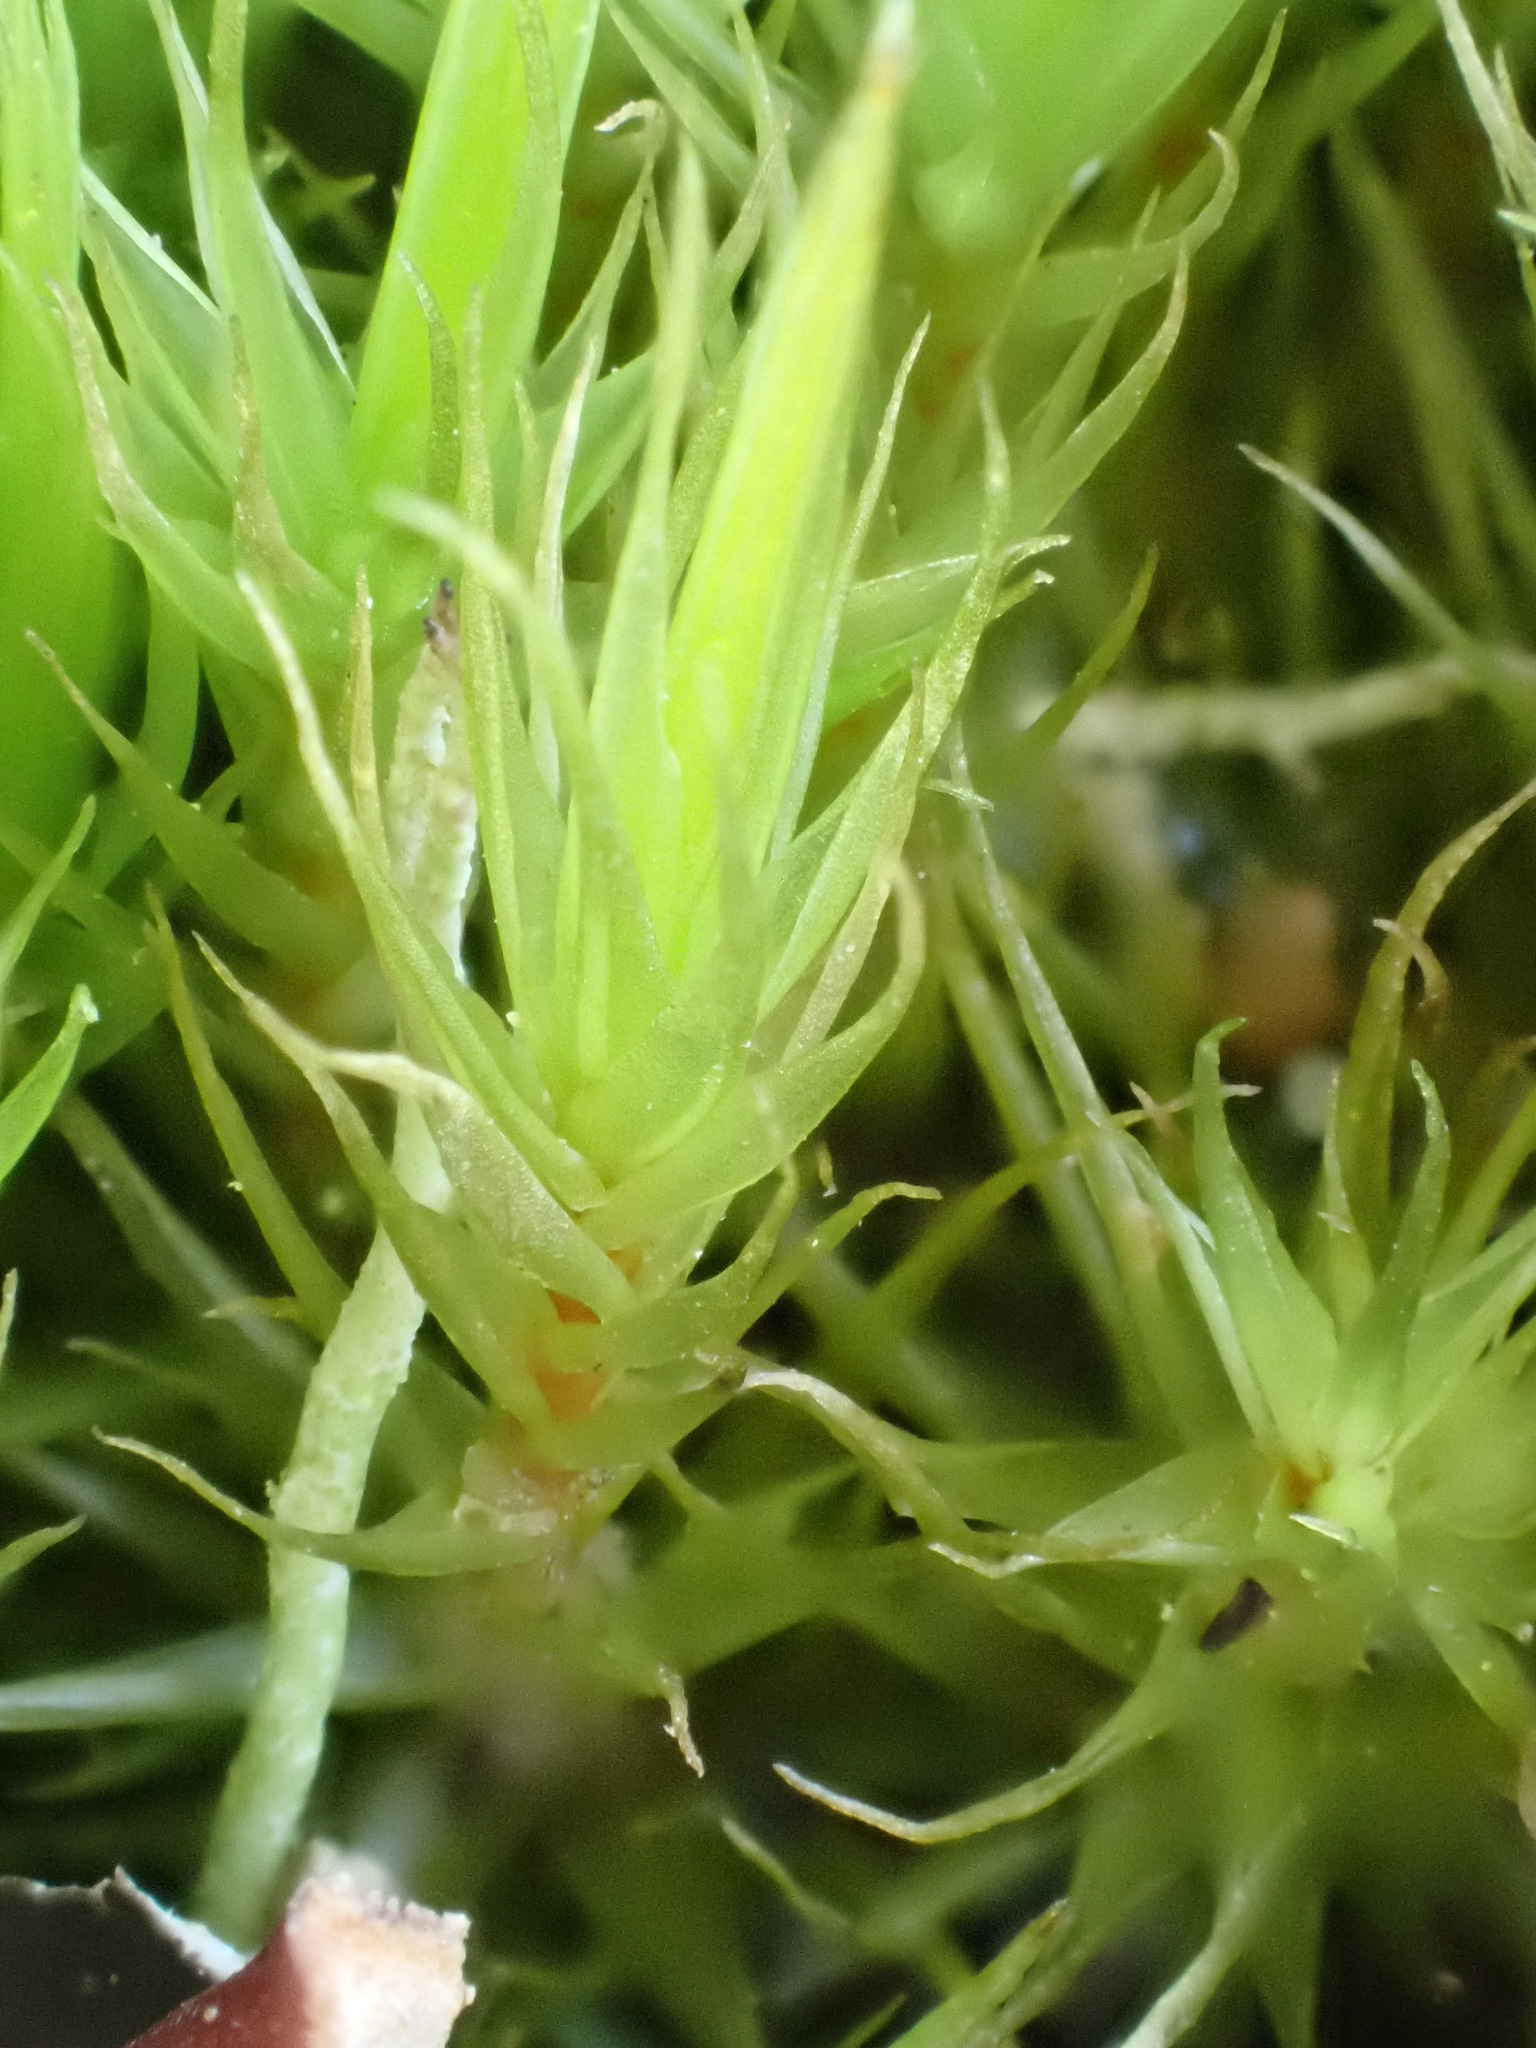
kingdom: Plantae
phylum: Bryophyta
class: Bryopsida
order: Dicranales
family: Dicranaceae
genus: Dicranum
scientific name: Dicranum scoparium
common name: Broom fork-moss
